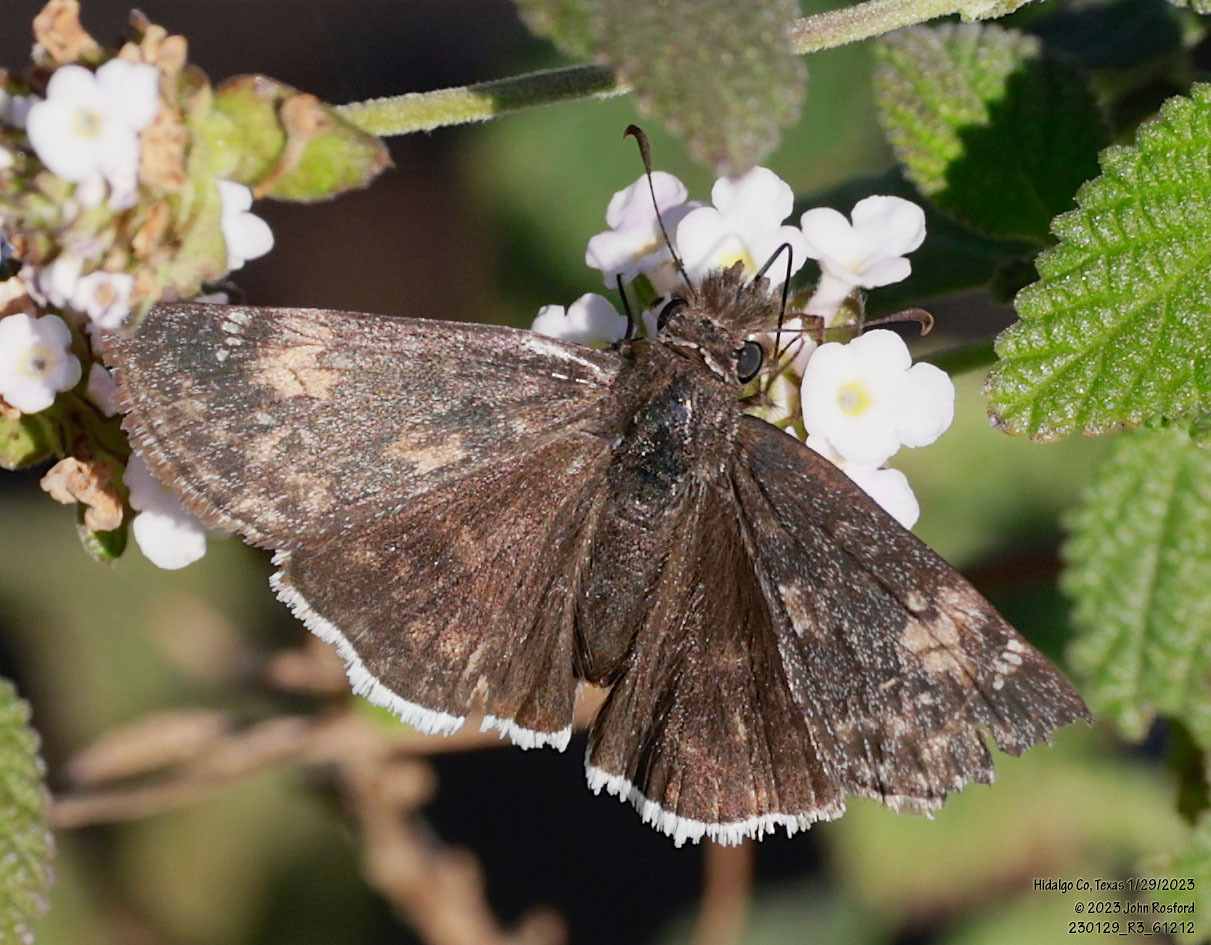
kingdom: Animalia
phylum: Arthropoda
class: Insecta
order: Lepidoptera
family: Hesperiidae
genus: Erynnis
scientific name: Erynnis funeralis
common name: Funereal duskywing
